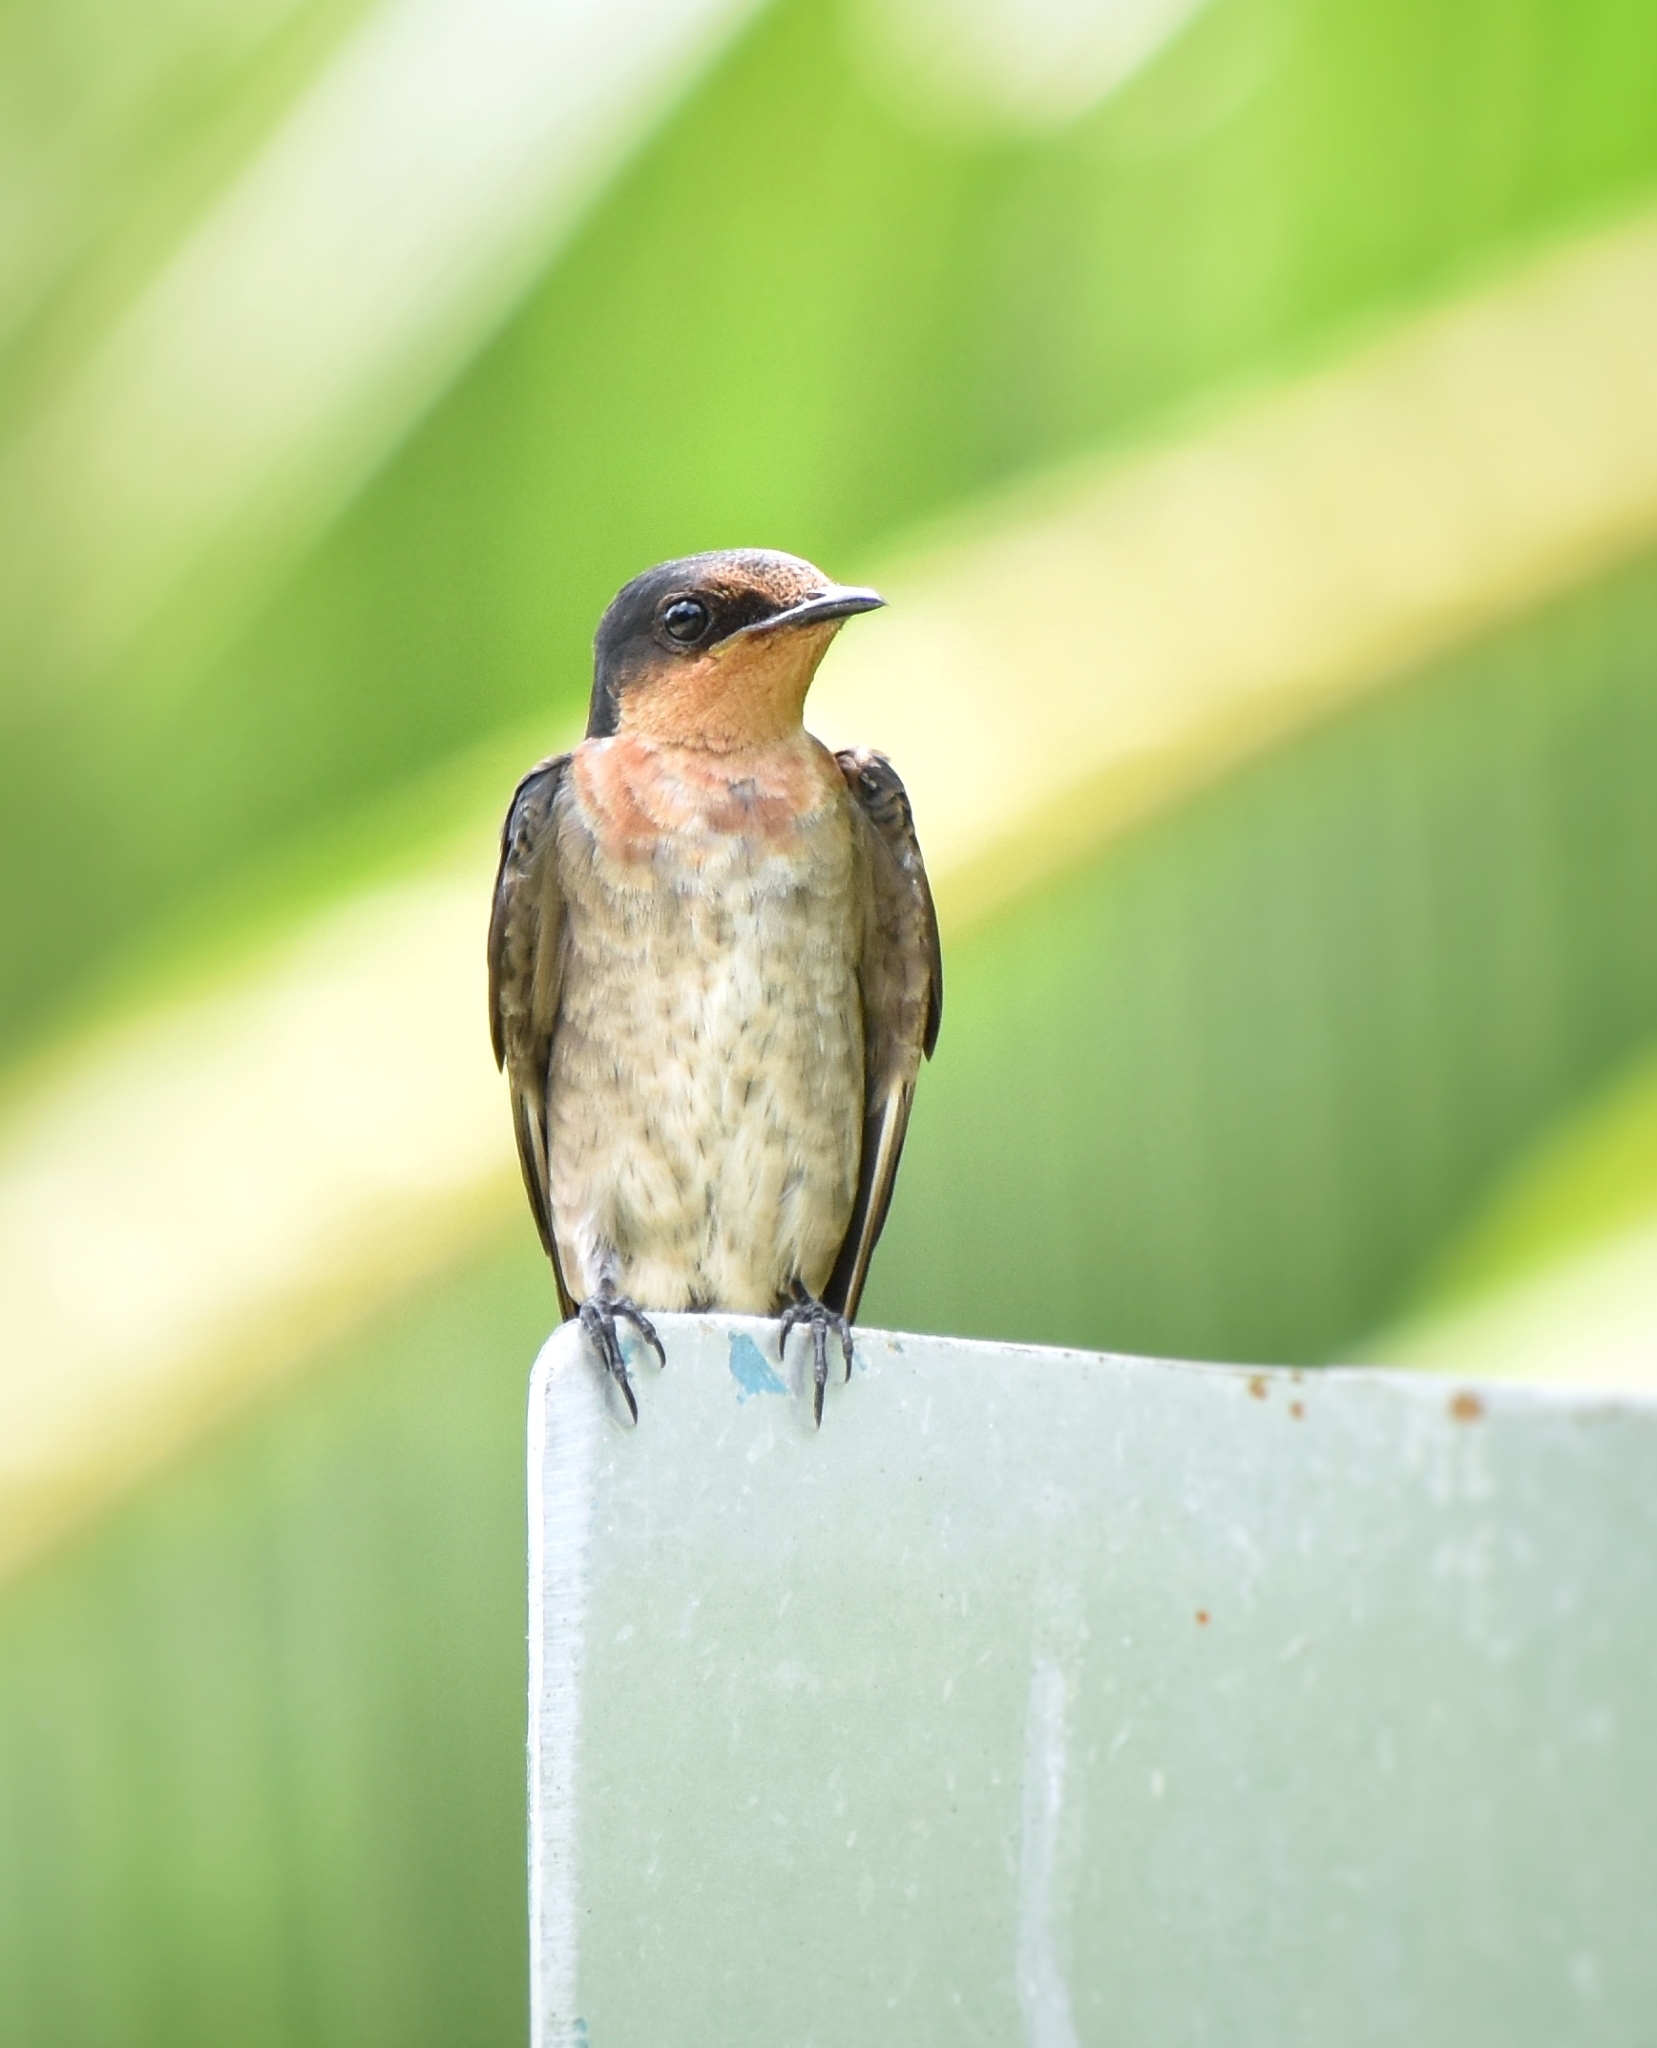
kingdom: Animalia
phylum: Chordata
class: Aves
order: Passeriformes
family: Hirundinidae
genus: Hirundo
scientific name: Hirundo tahitica
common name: Pacific swallow
